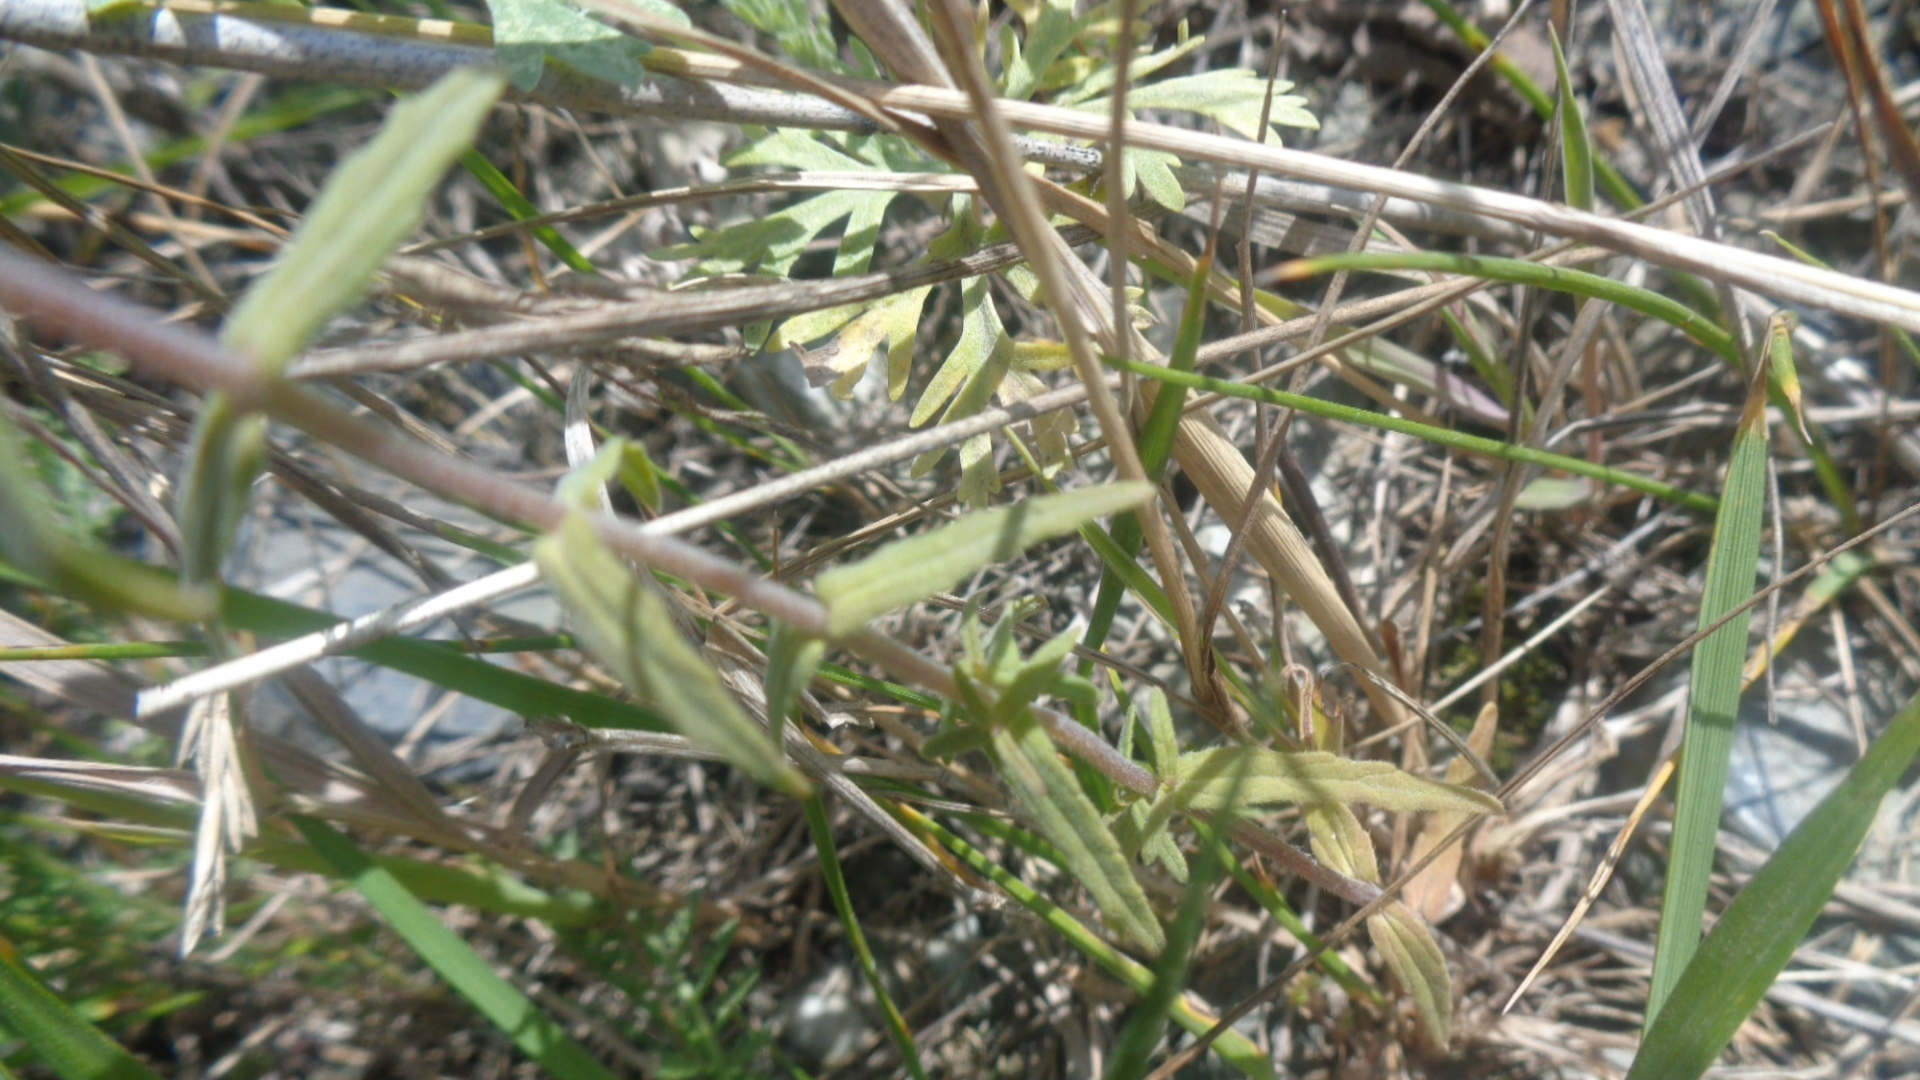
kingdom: Plantae
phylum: Tracheophyta
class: Magnoliopsida
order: Lamiales
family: Orobanchaceae
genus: Odontites
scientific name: Odontites vulgaris
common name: Broomrape
